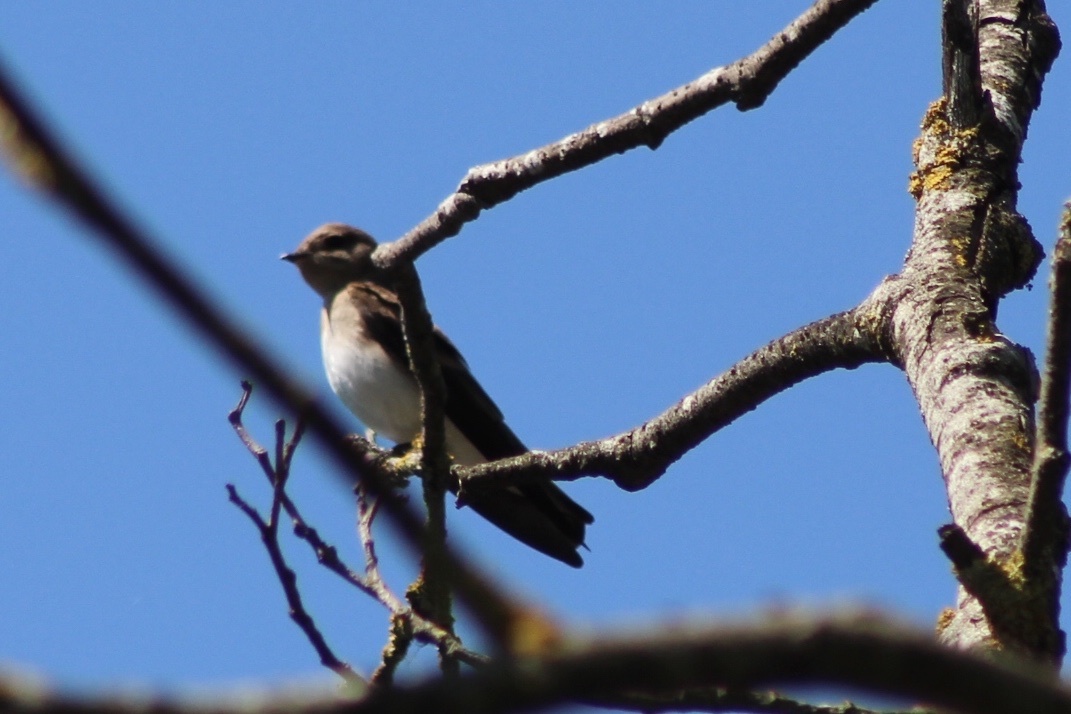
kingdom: Animalia
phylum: Chordata
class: Aves
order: Passeriformes
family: Hirundinidae
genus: Stelgidopteryx
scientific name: Stelgidopteryx serripennis
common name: Northern rough-winged swallow
